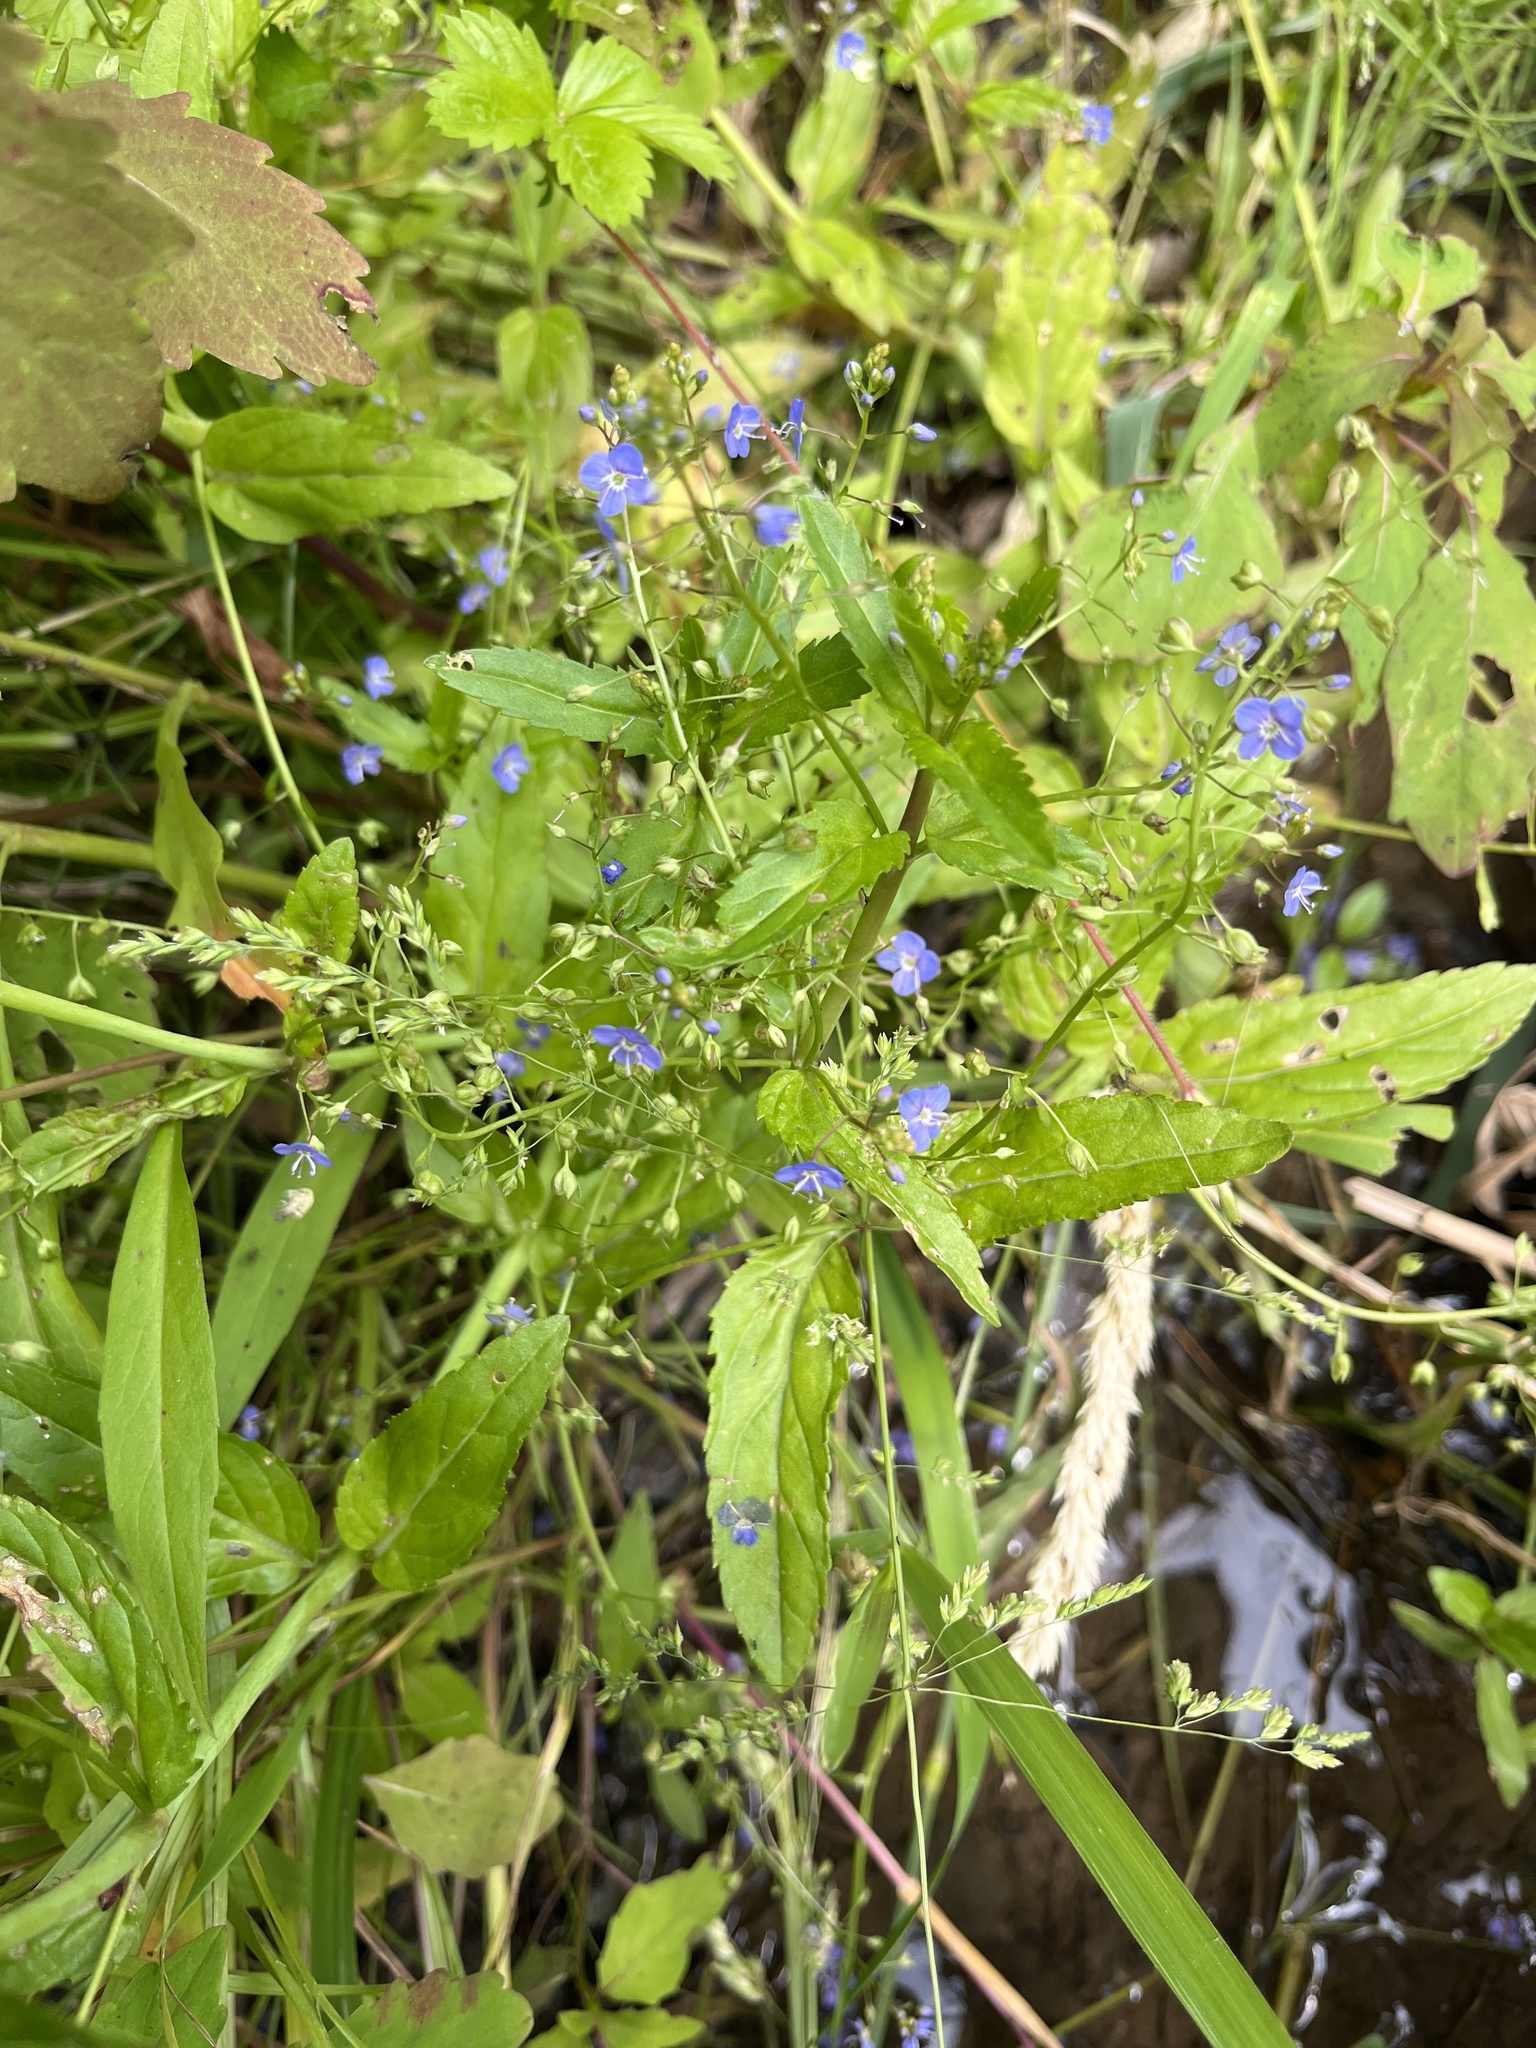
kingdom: Plantae
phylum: Tracheophyta
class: Magnoliopsida
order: Lamiales
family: Plantaginaceae
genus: Veronica
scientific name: Veronica americana
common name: American brooklime
